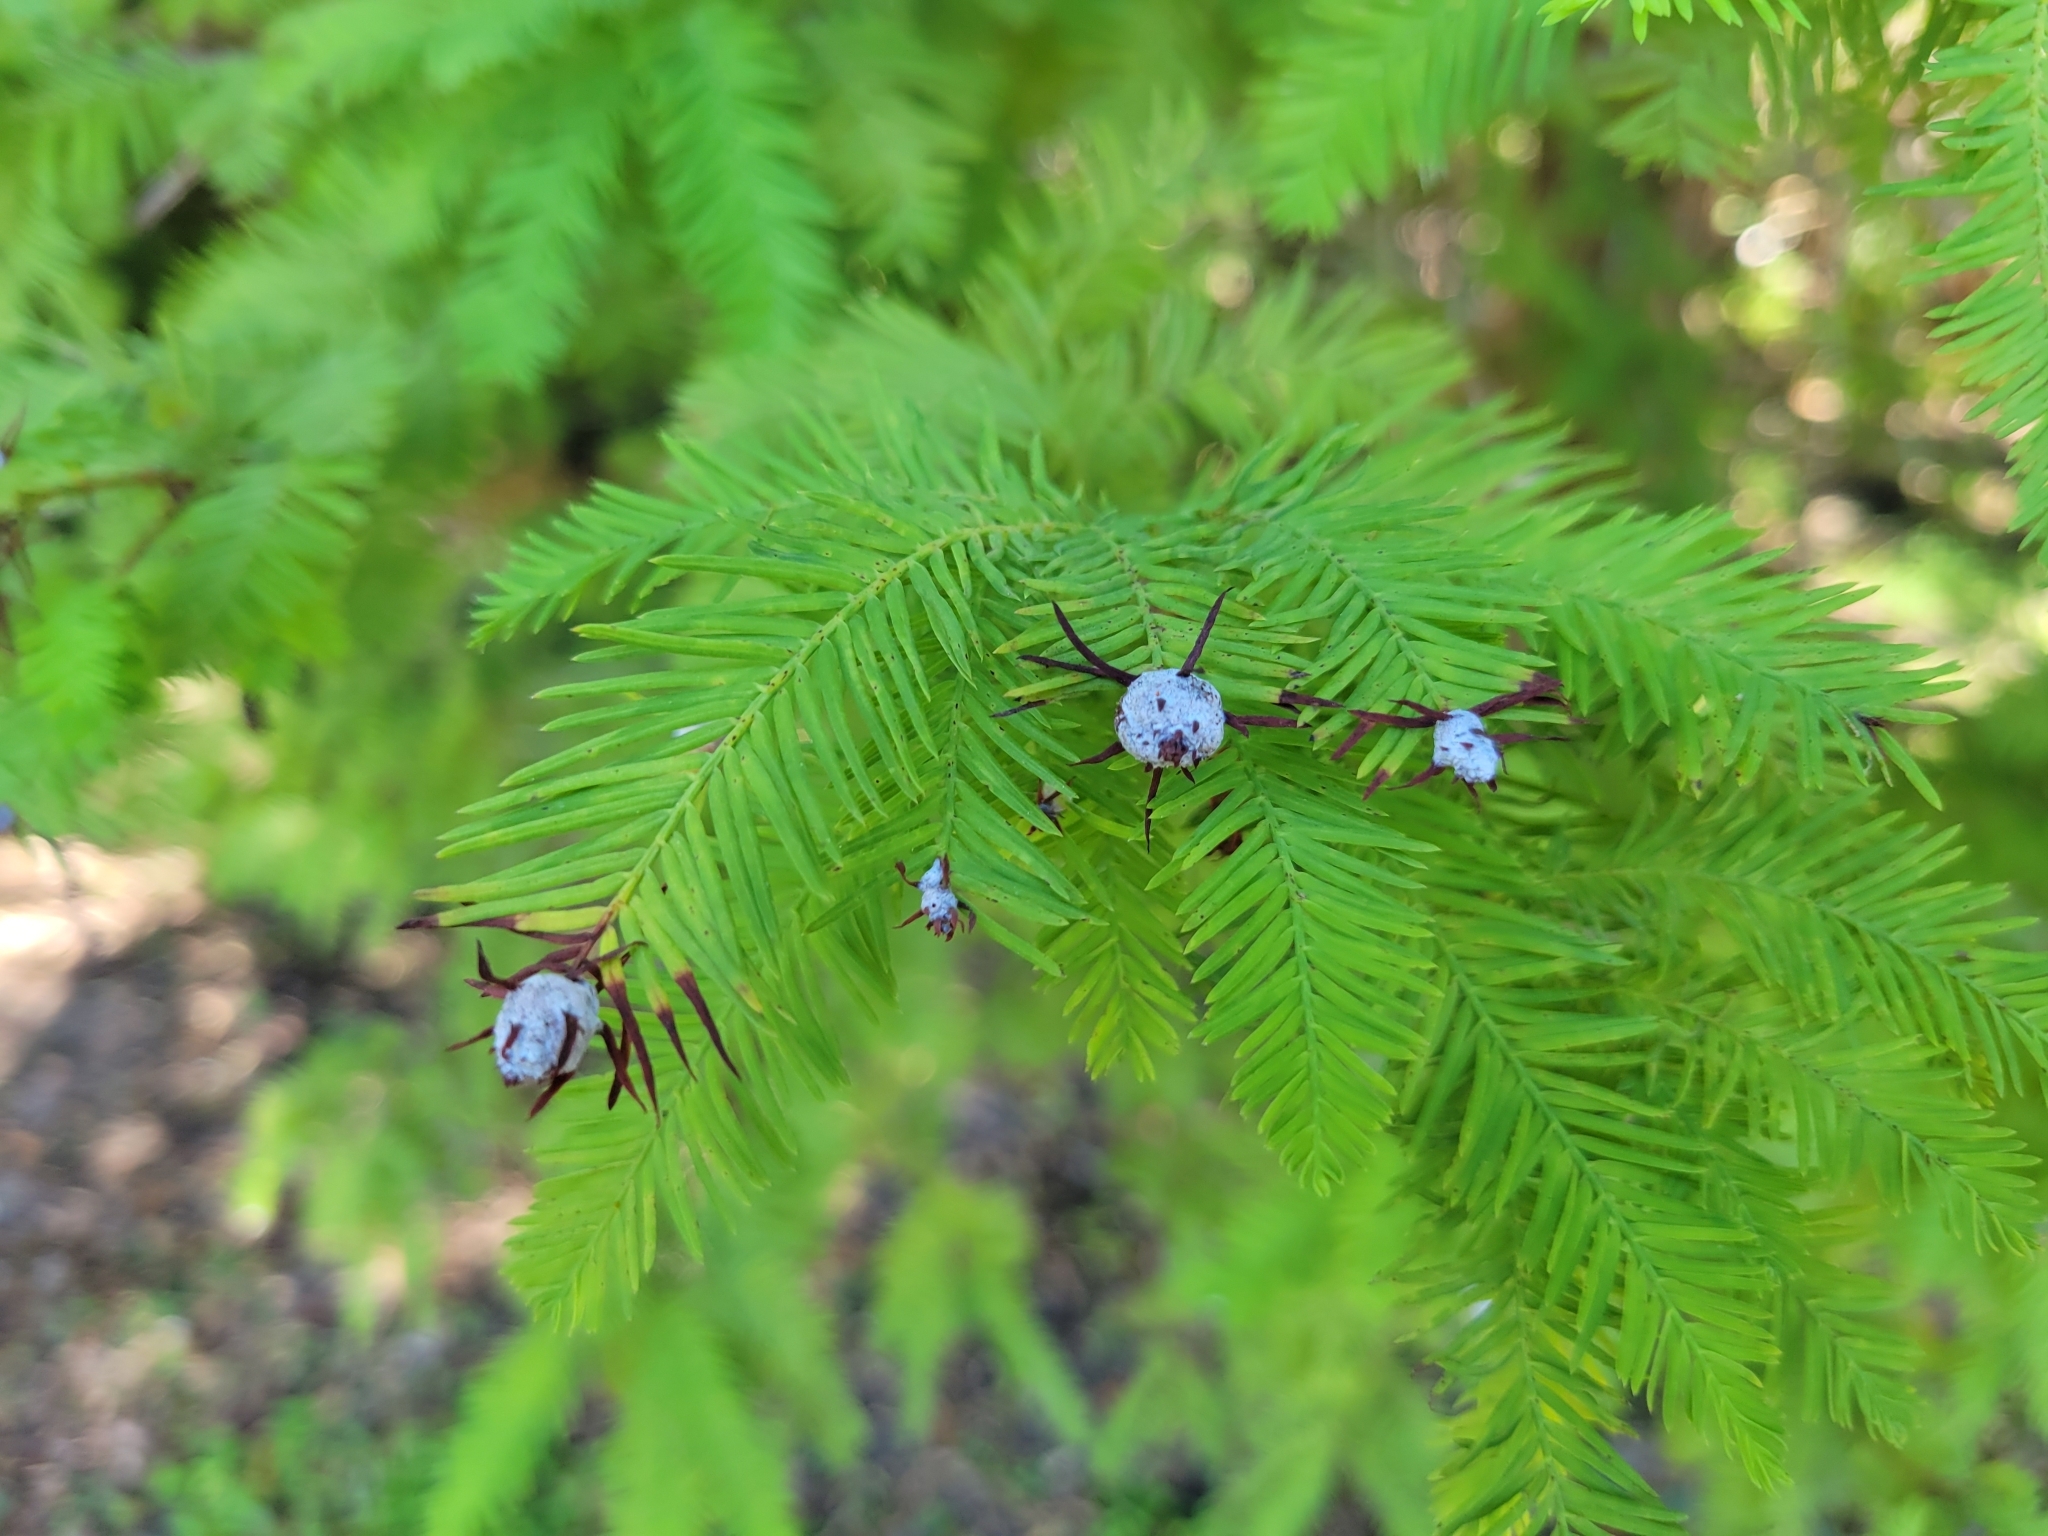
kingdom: Plantae
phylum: Tracheophyta
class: Pinopsida
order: Pinales
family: Cupressaceae
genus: Taxodium
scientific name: Taxodium distichum
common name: Bald cypress
